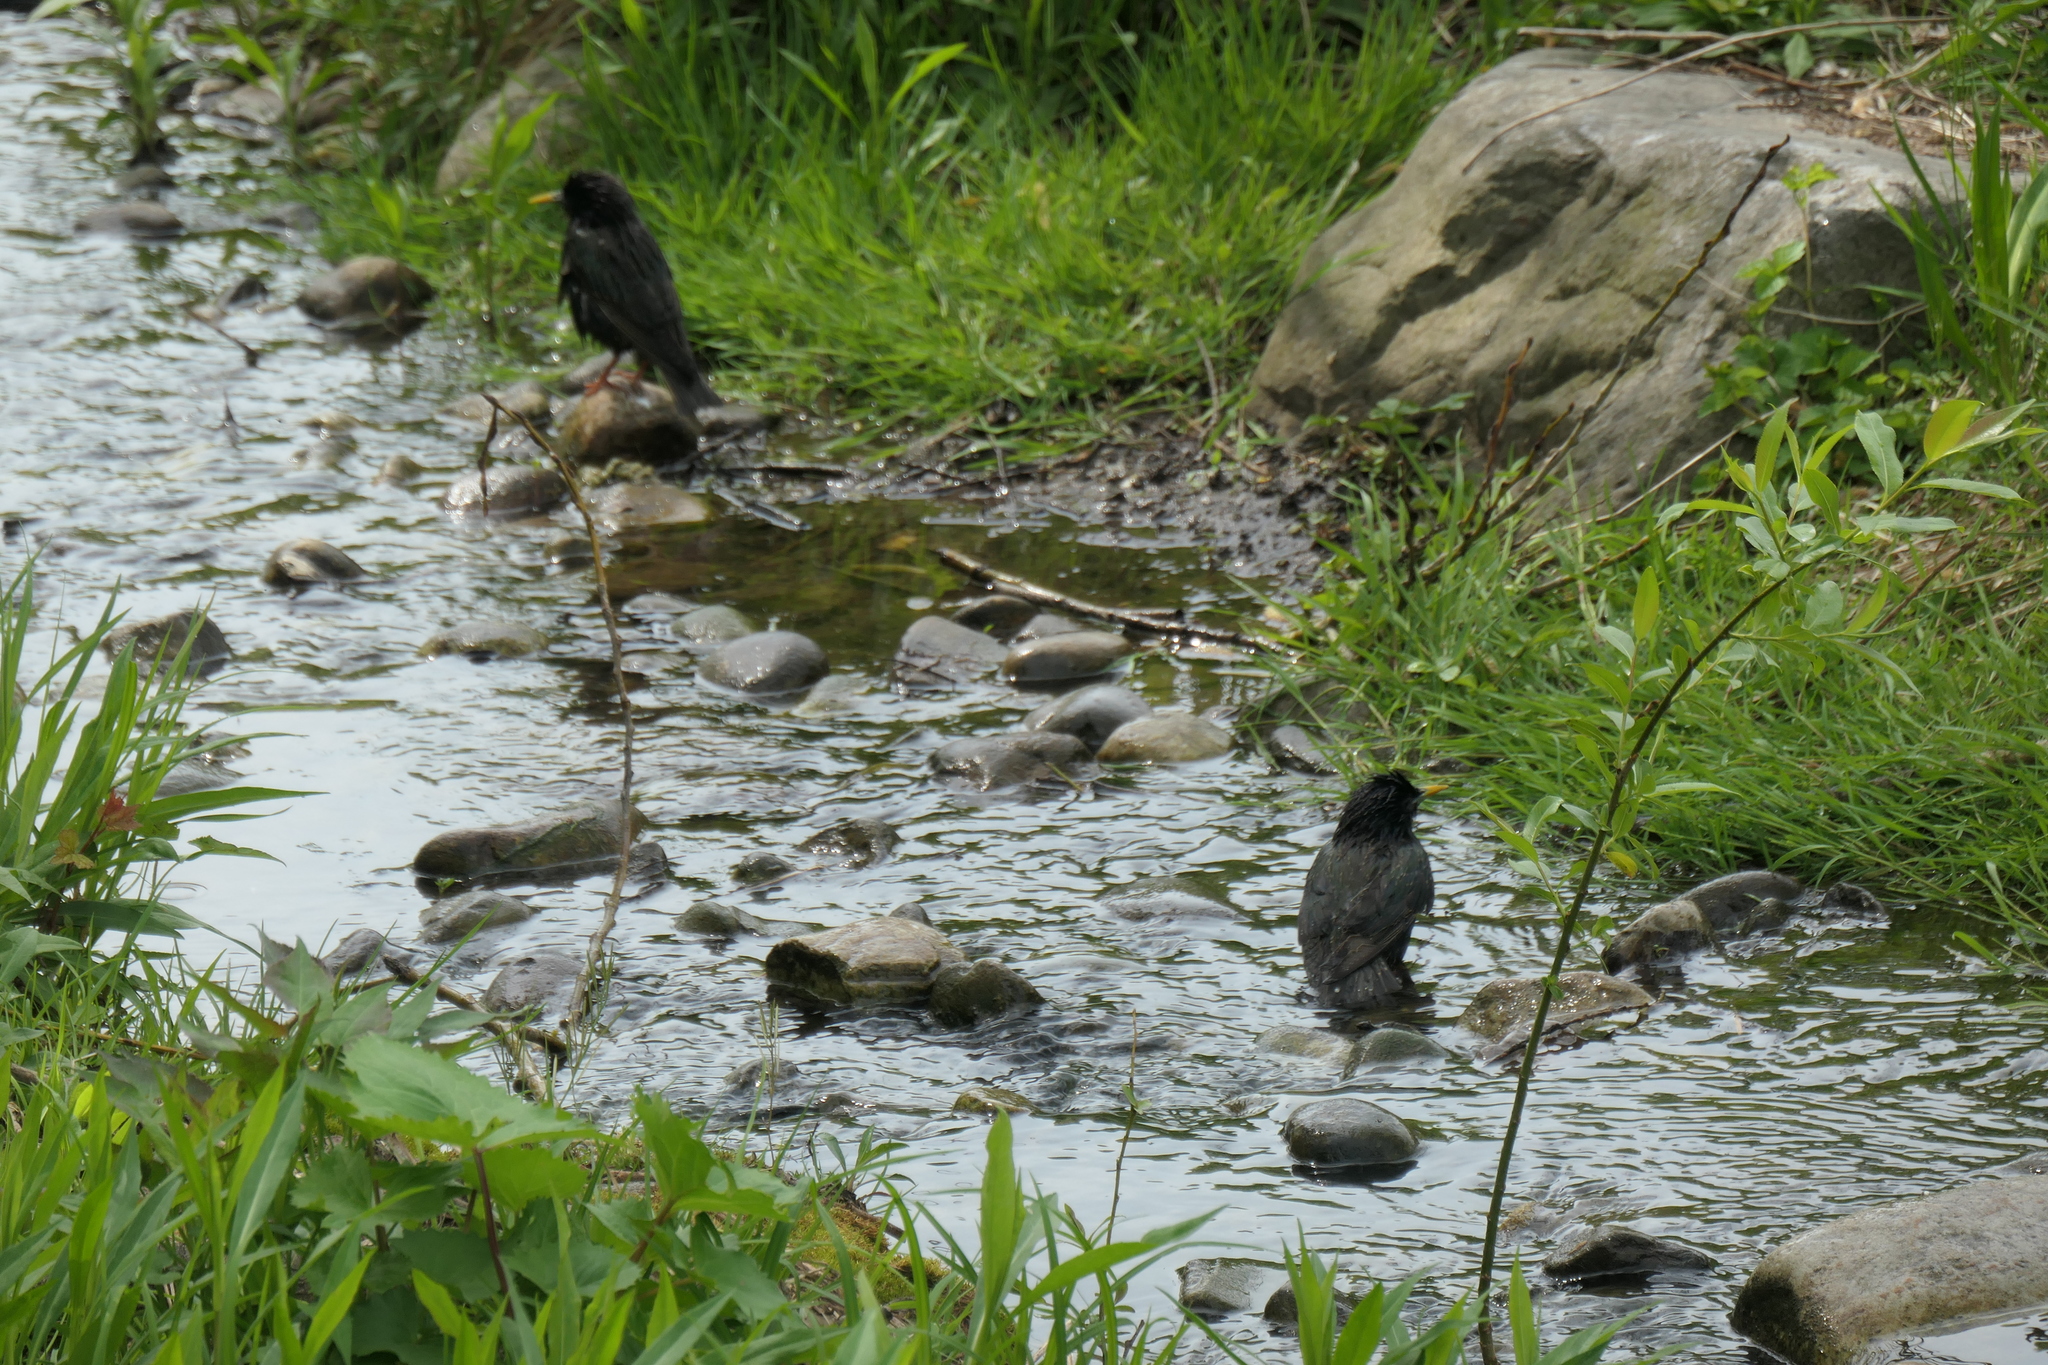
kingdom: Animalia
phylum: Chordata
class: Aves
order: Passeriformes
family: Sturnidae
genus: Sturnus
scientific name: Sturnus vulgaris
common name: Common starling
